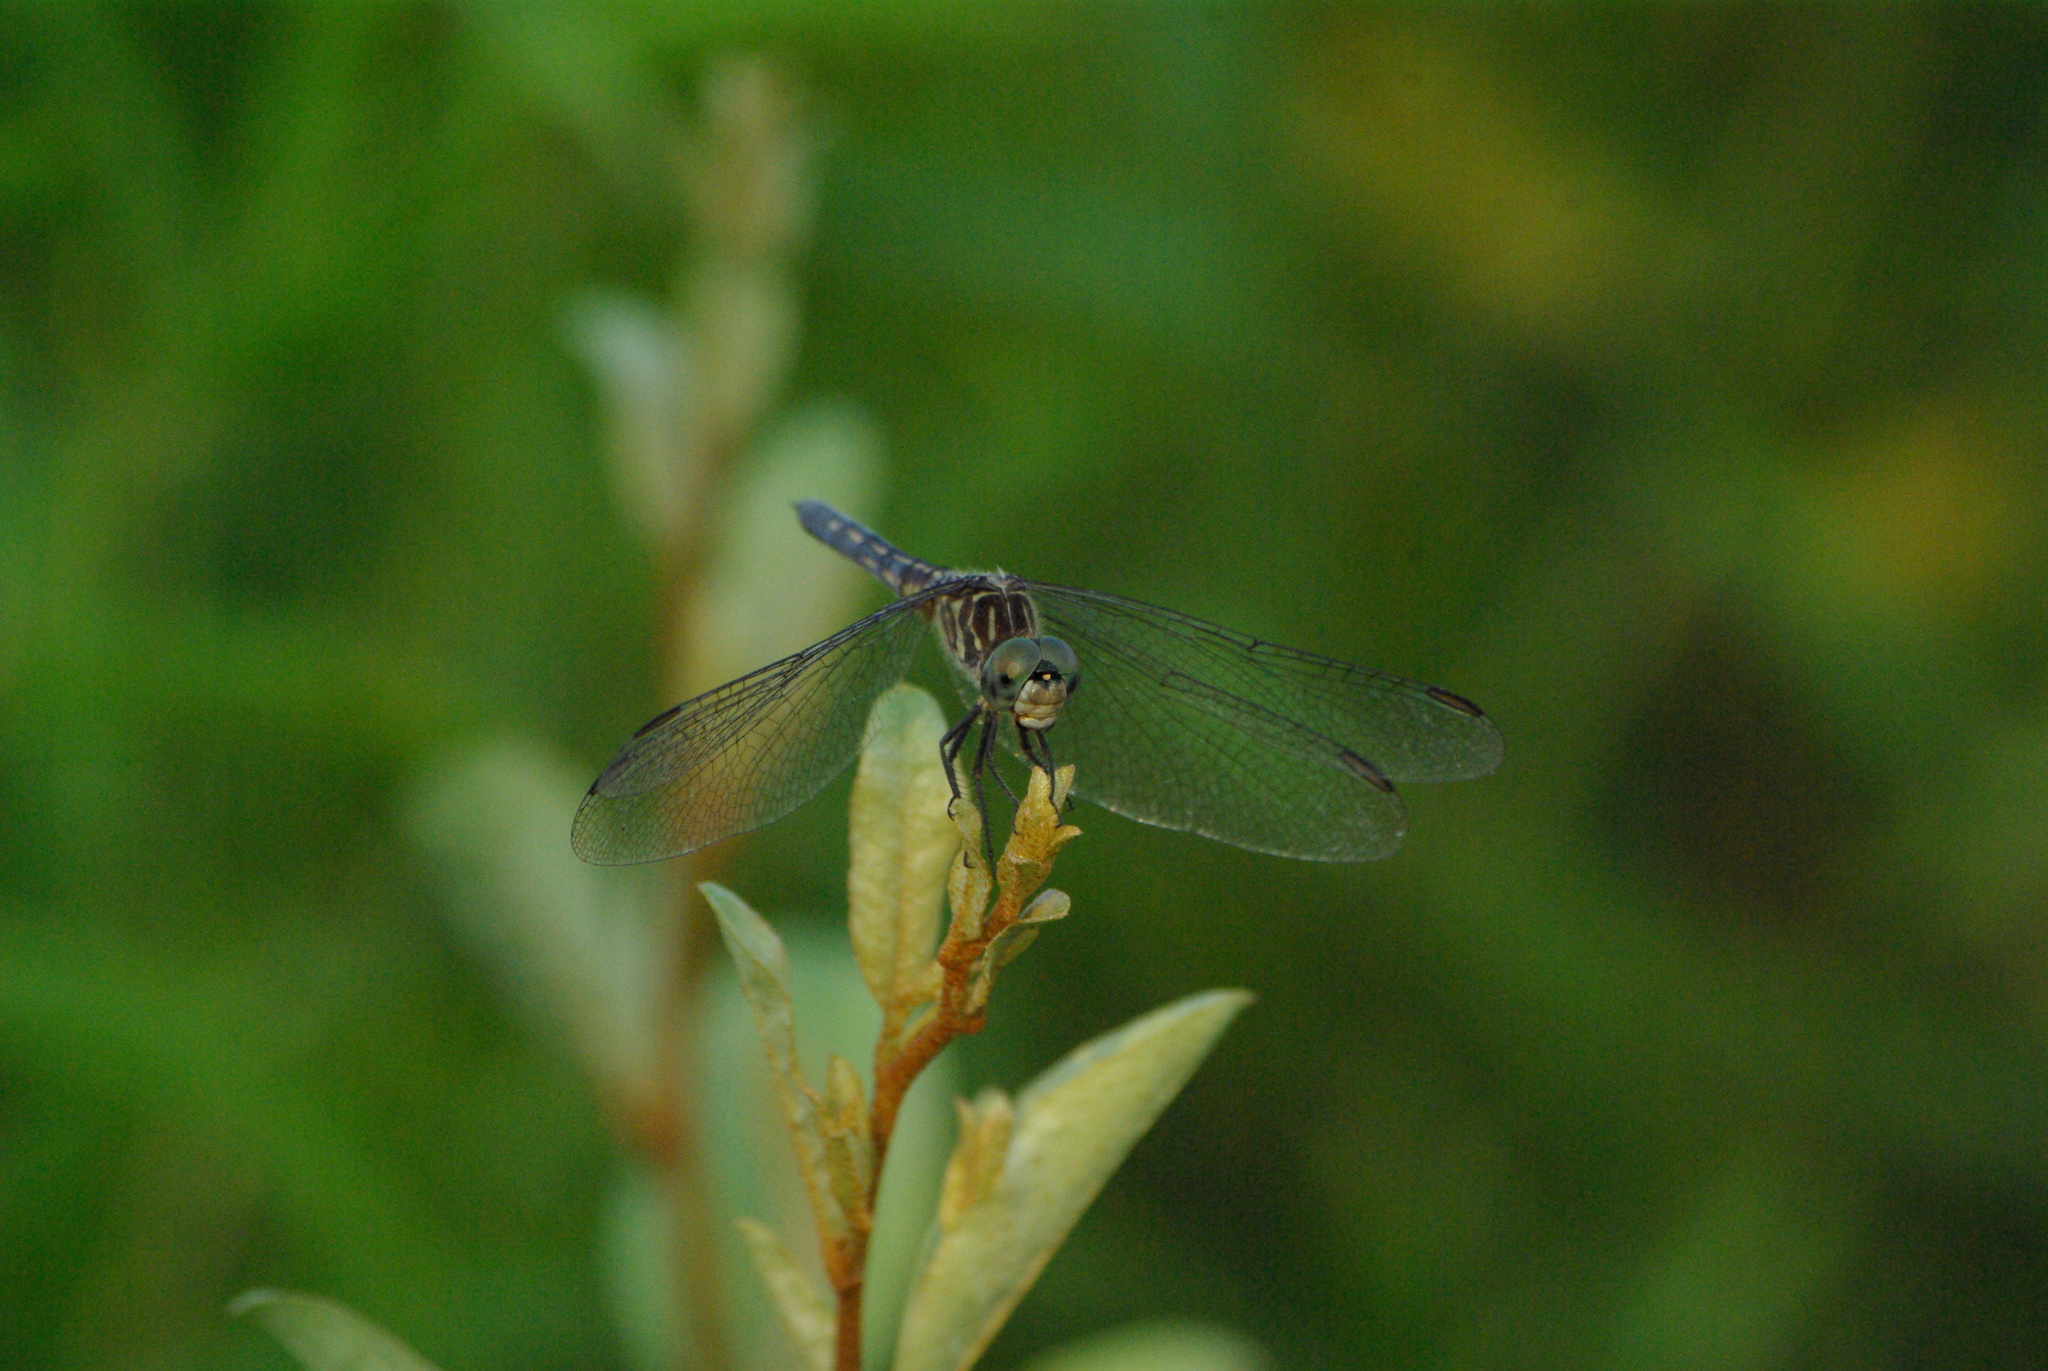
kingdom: Animalia
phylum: Arthropoda
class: Insecta
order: Odonata
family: Libellulidae
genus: Pachydiplax
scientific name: Pachydiplax longipennis
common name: Blue dasher
